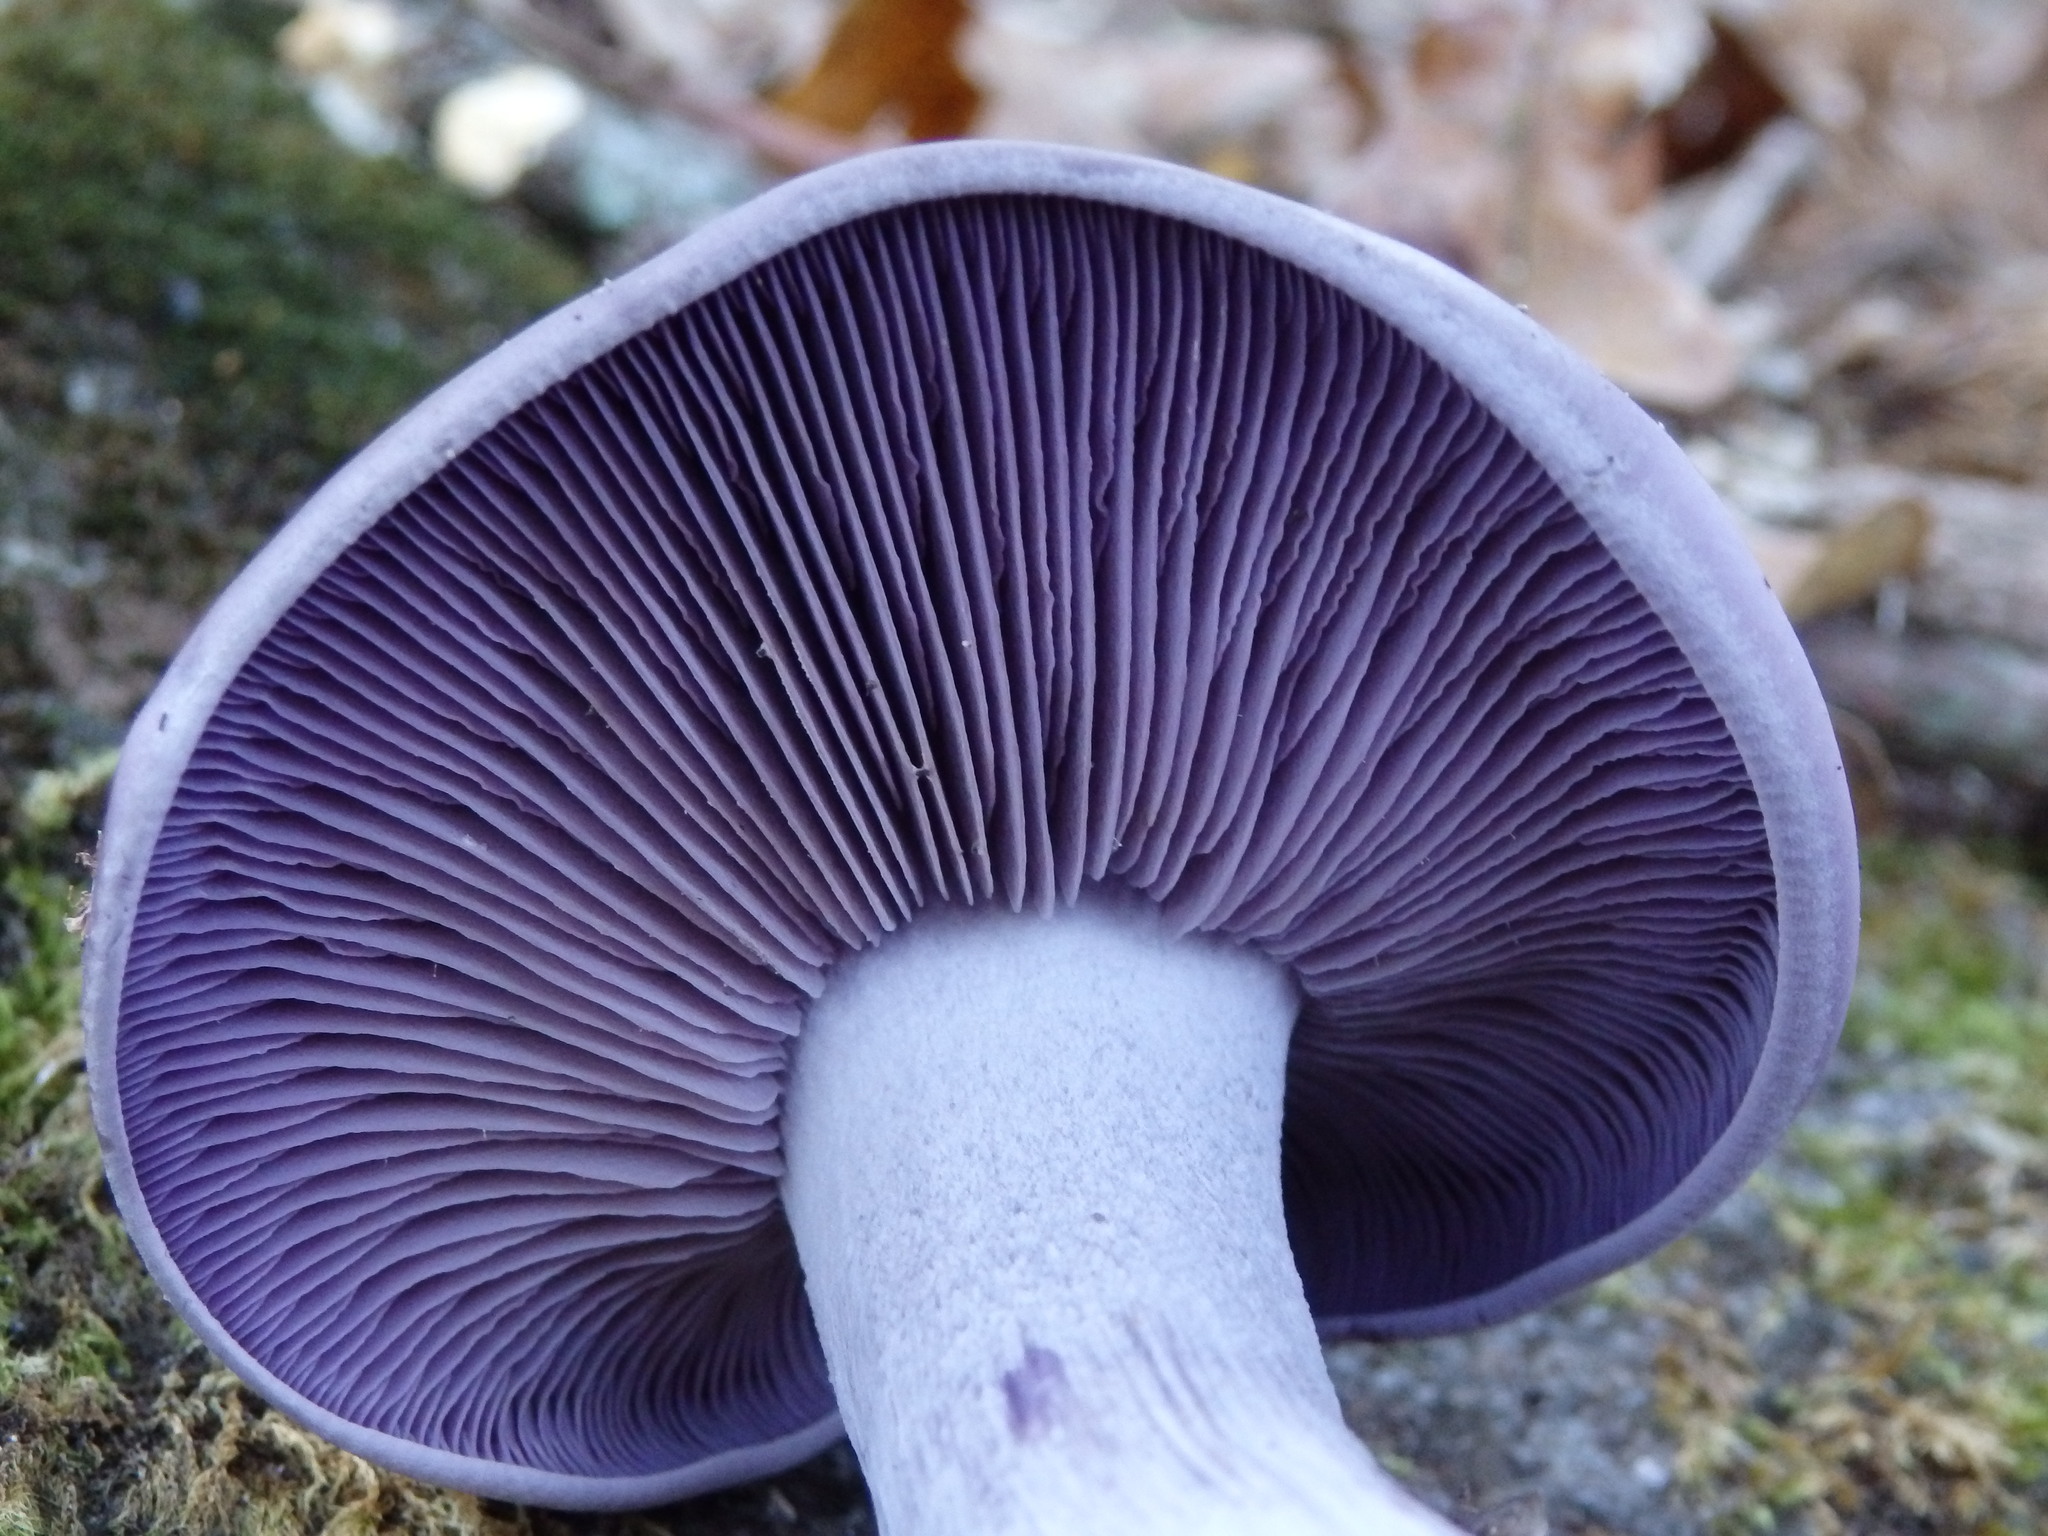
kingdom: Fungi
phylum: Basidiomycota
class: Agaricomycetes
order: Agaricales
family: Tricholomataceae
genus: Collybia
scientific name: Collybia
